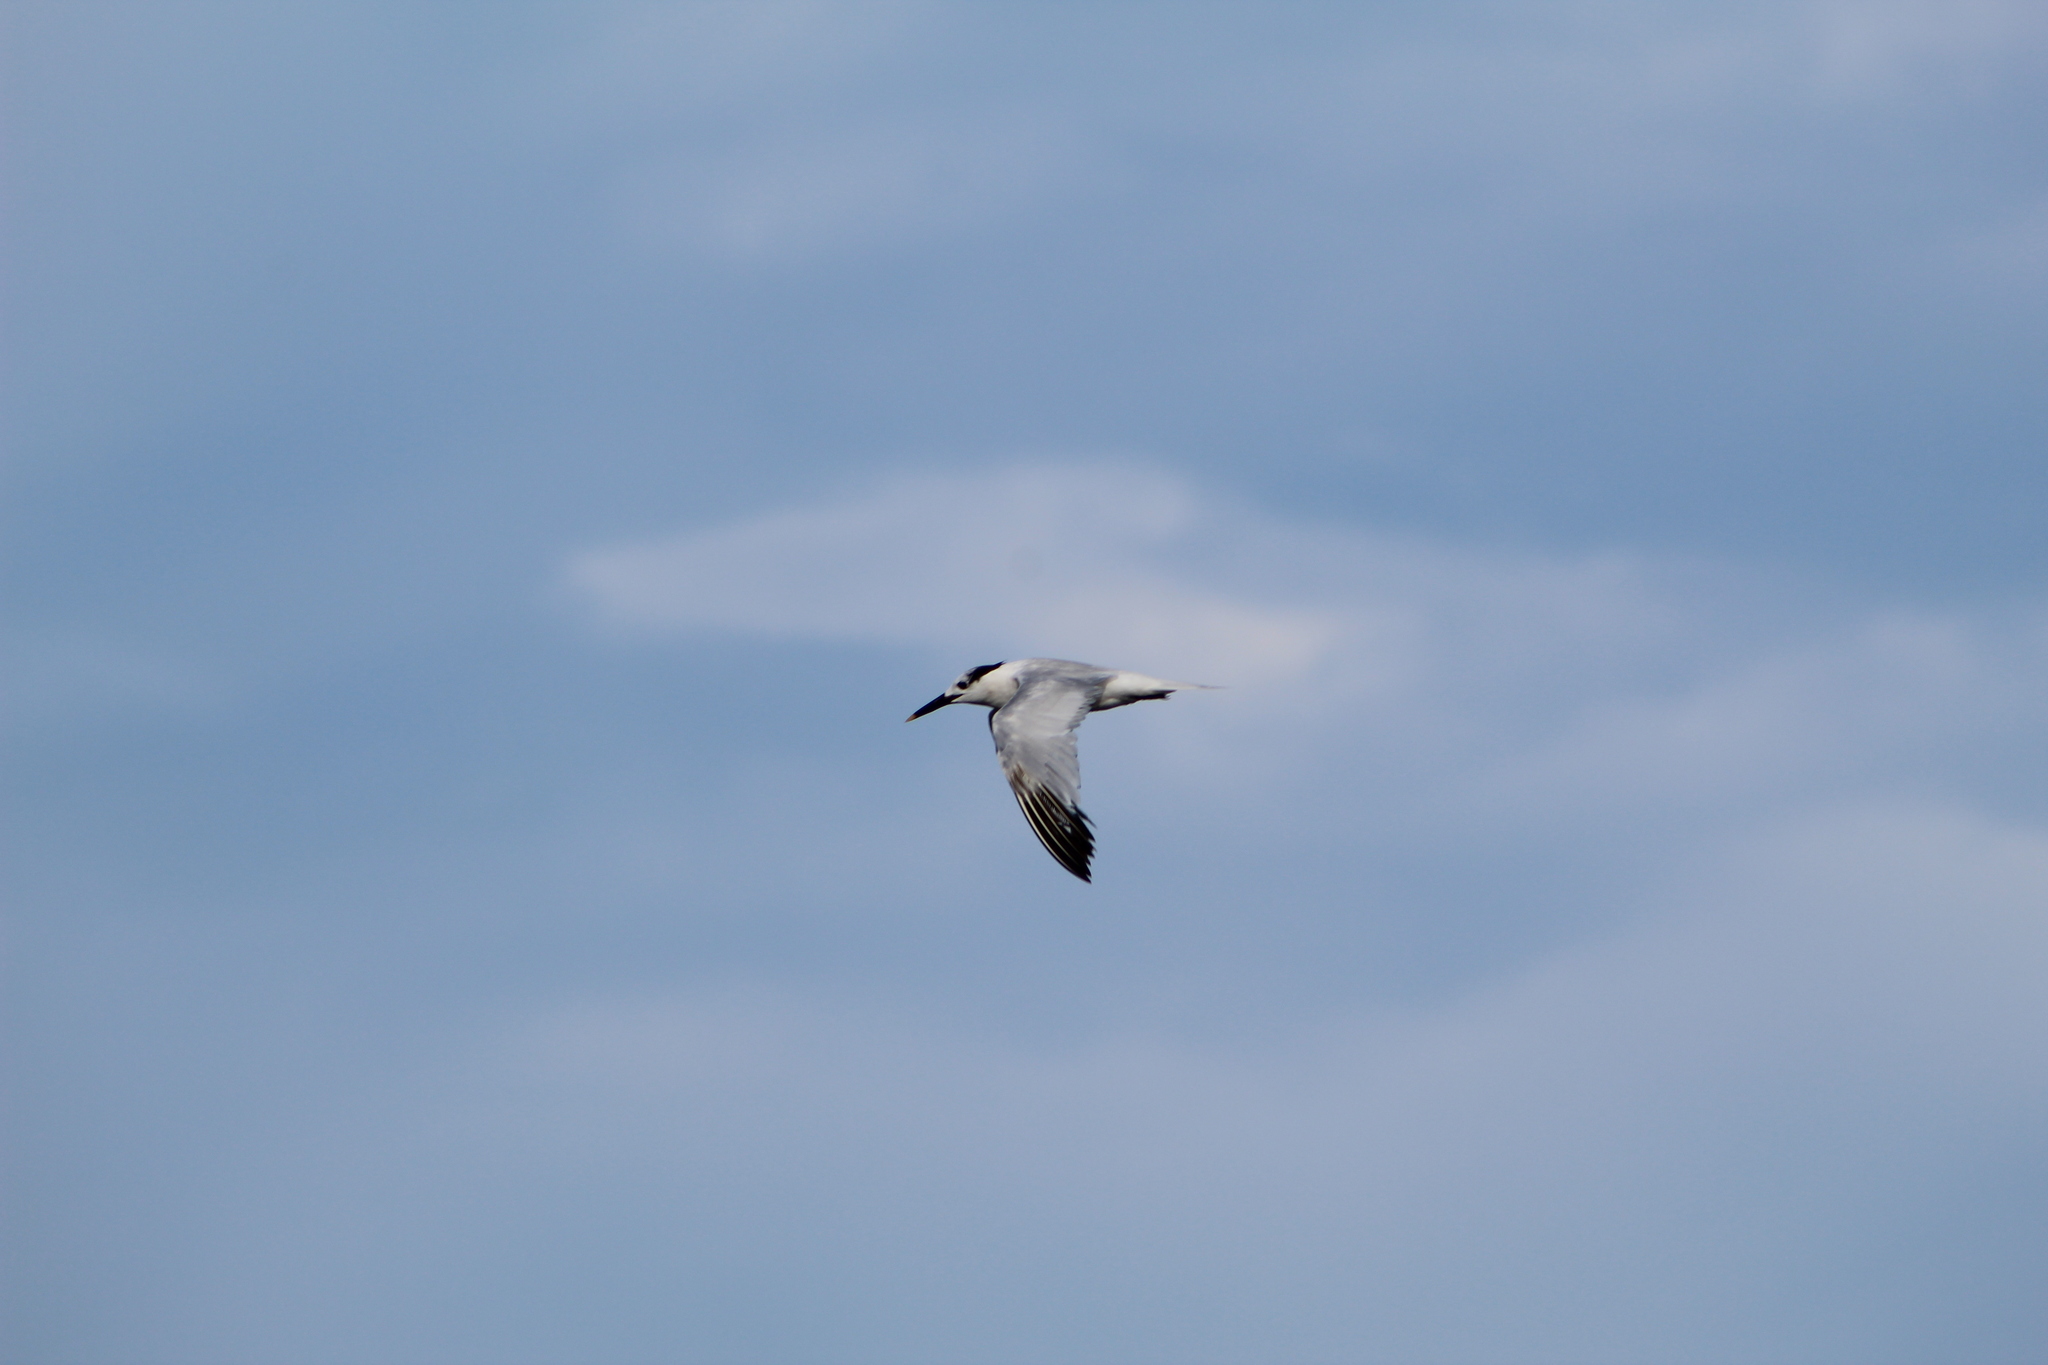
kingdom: Animalia
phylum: Chordata
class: Aves
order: Charadriiformes
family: Laridae
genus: Thalasseus
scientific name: Thalasseus sandvicensis
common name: Sandwich tern
